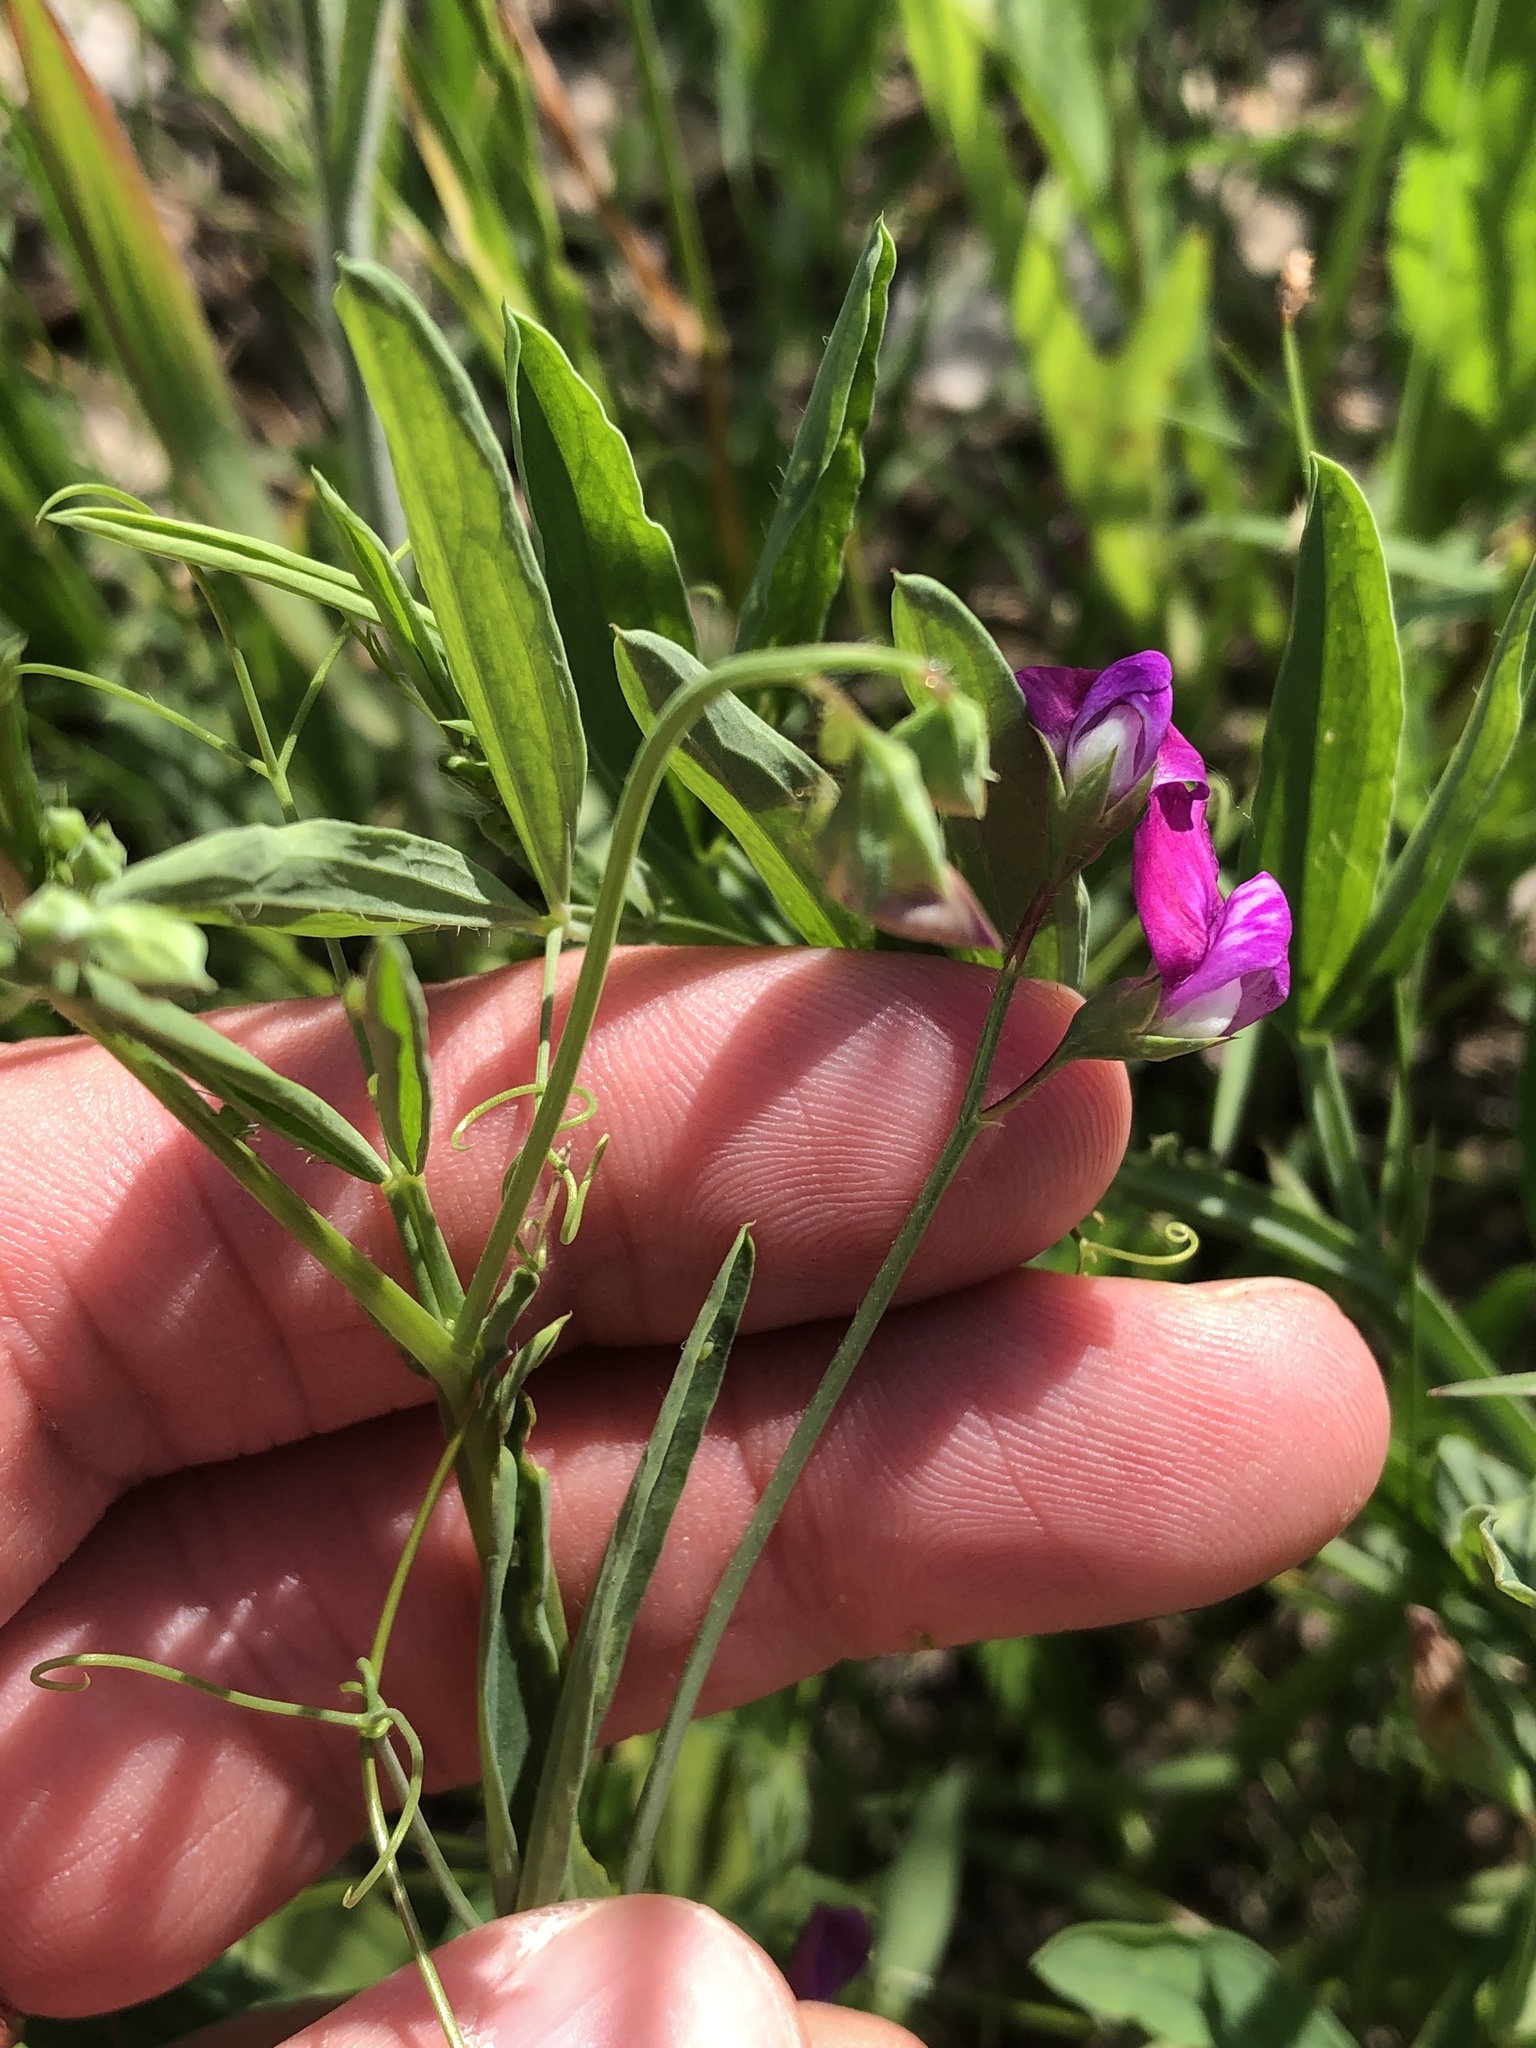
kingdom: Plantae
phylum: Tracheophyta
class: Magnoliopsida
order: Fabales
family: Fabaceae
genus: Lathyrus
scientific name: Lathyrus hirsutus
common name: Hairy vetchling
